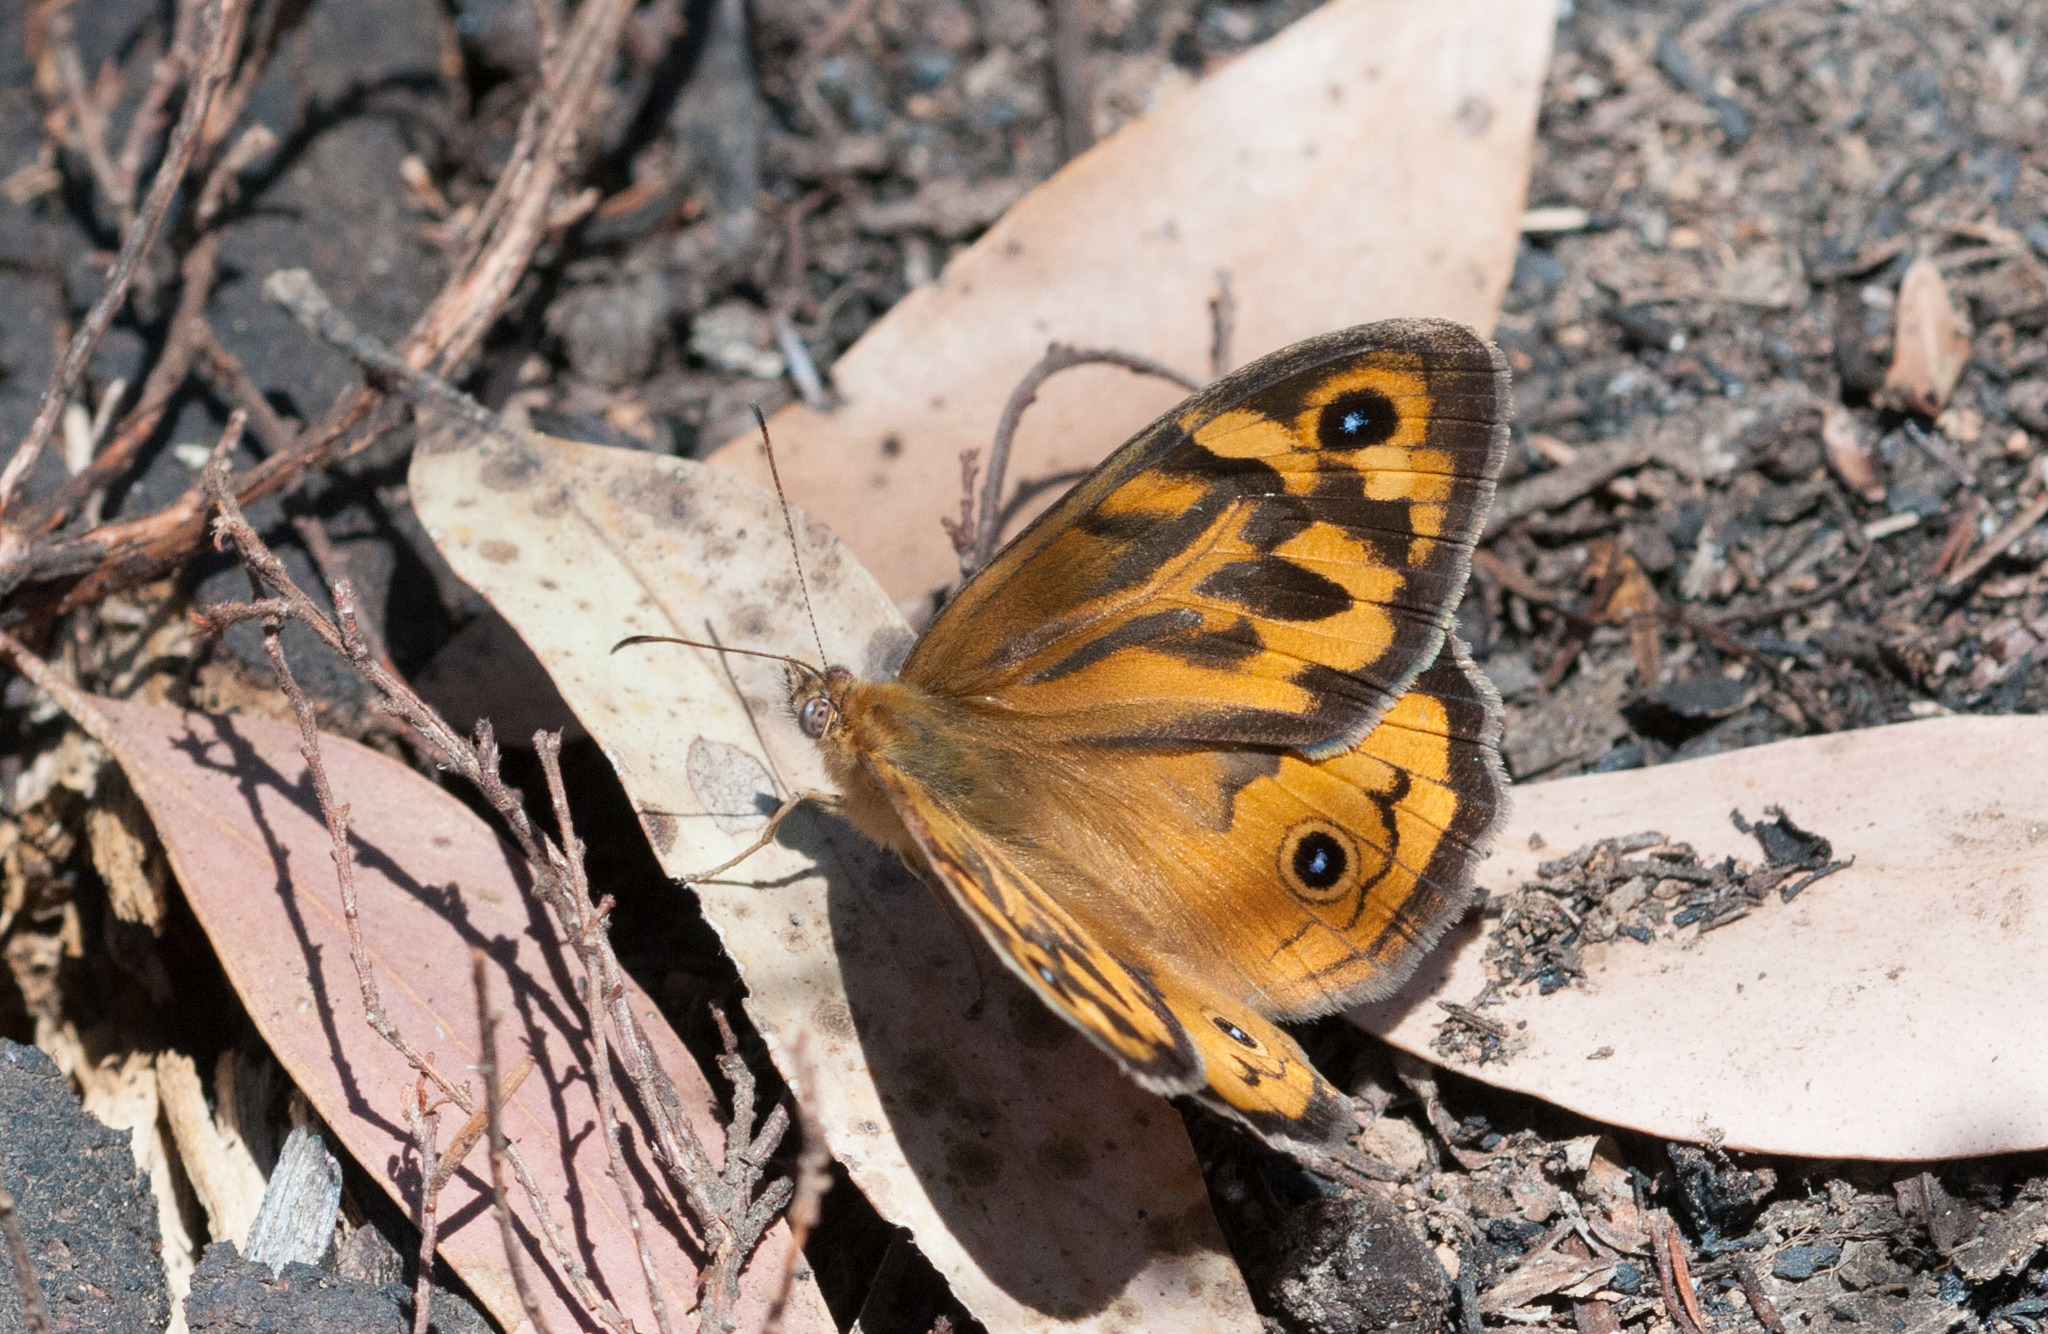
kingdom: Animalia
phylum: Arthropoda
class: Insecta
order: Lepidoptera
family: Nymphalidae
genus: Heteronympha
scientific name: Heteronympha merope
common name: Common brown
